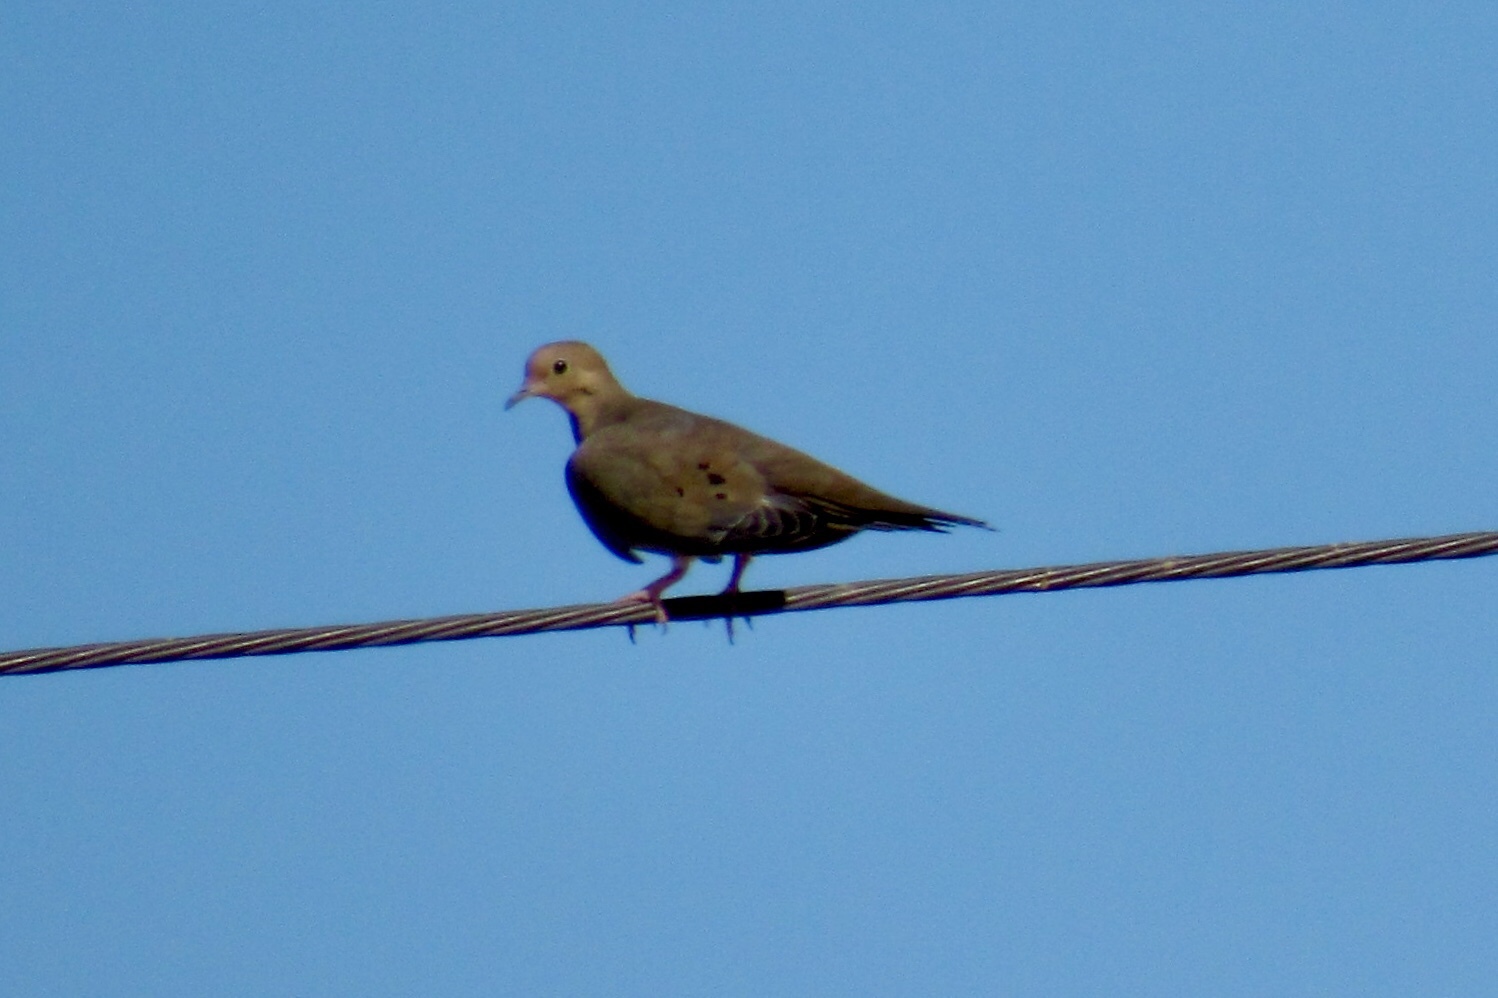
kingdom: Animalia
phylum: Chordata
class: Aves
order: Columbiformes
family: Columbidae
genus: Zenaida
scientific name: Zenaida macroura
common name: Mourning dove
